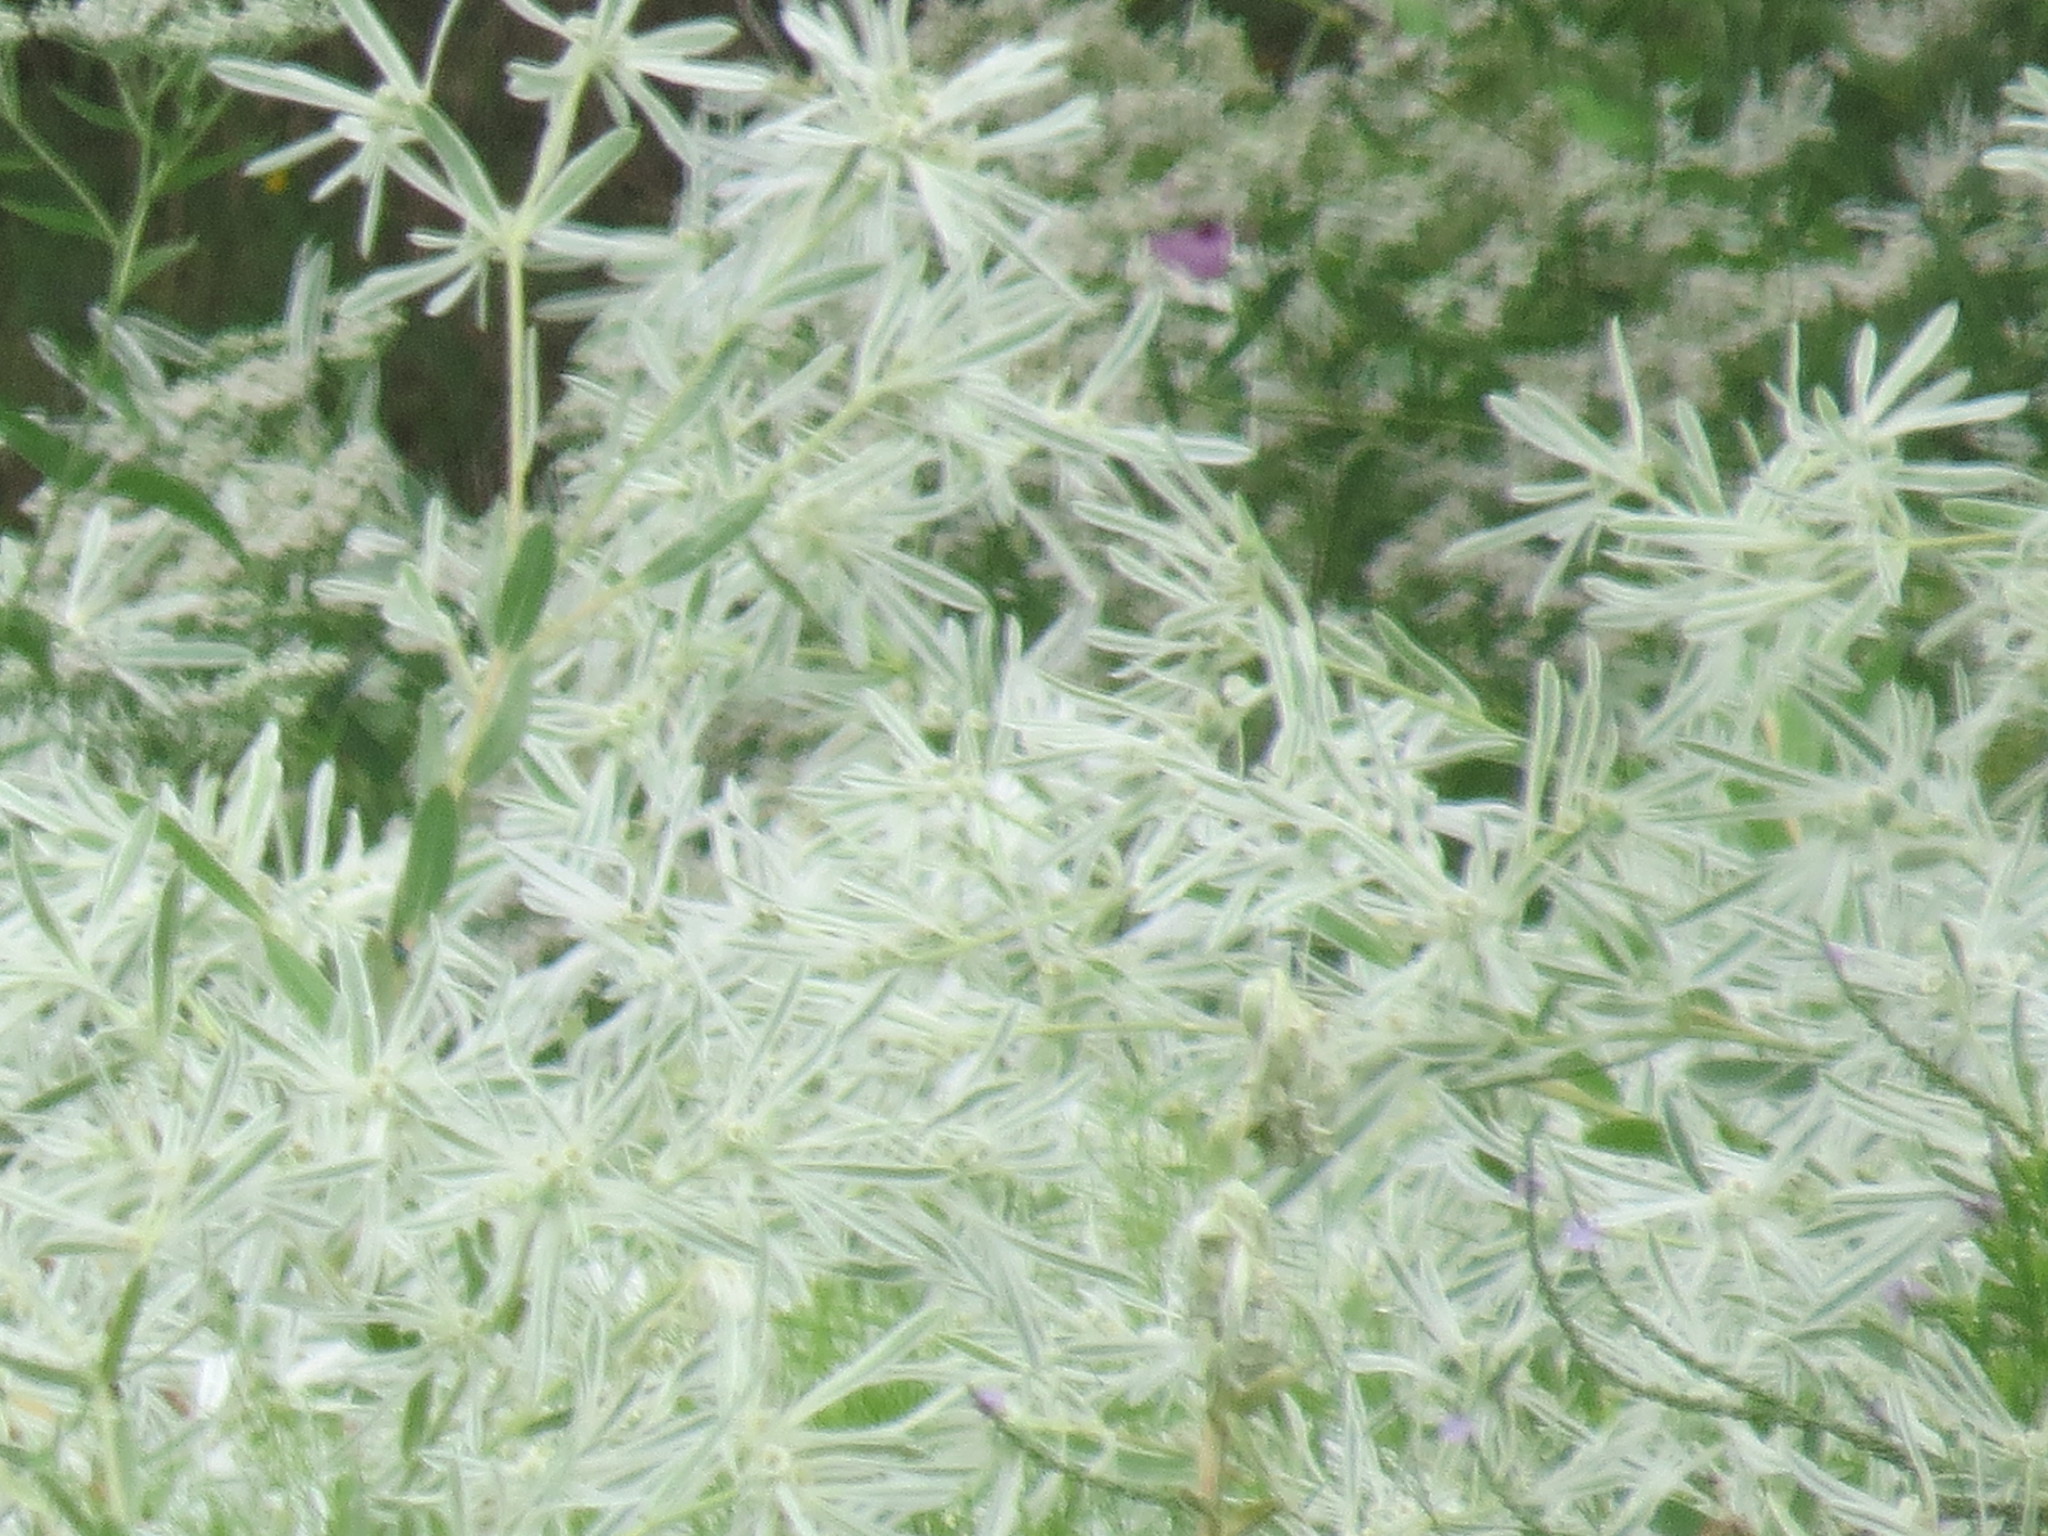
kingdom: Plantae
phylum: Tracheophyta
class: Magnoliopsida
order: Malpighiales
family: Euphorbiaceae
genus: Euphorbia
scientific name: Euphorbia bicolor
